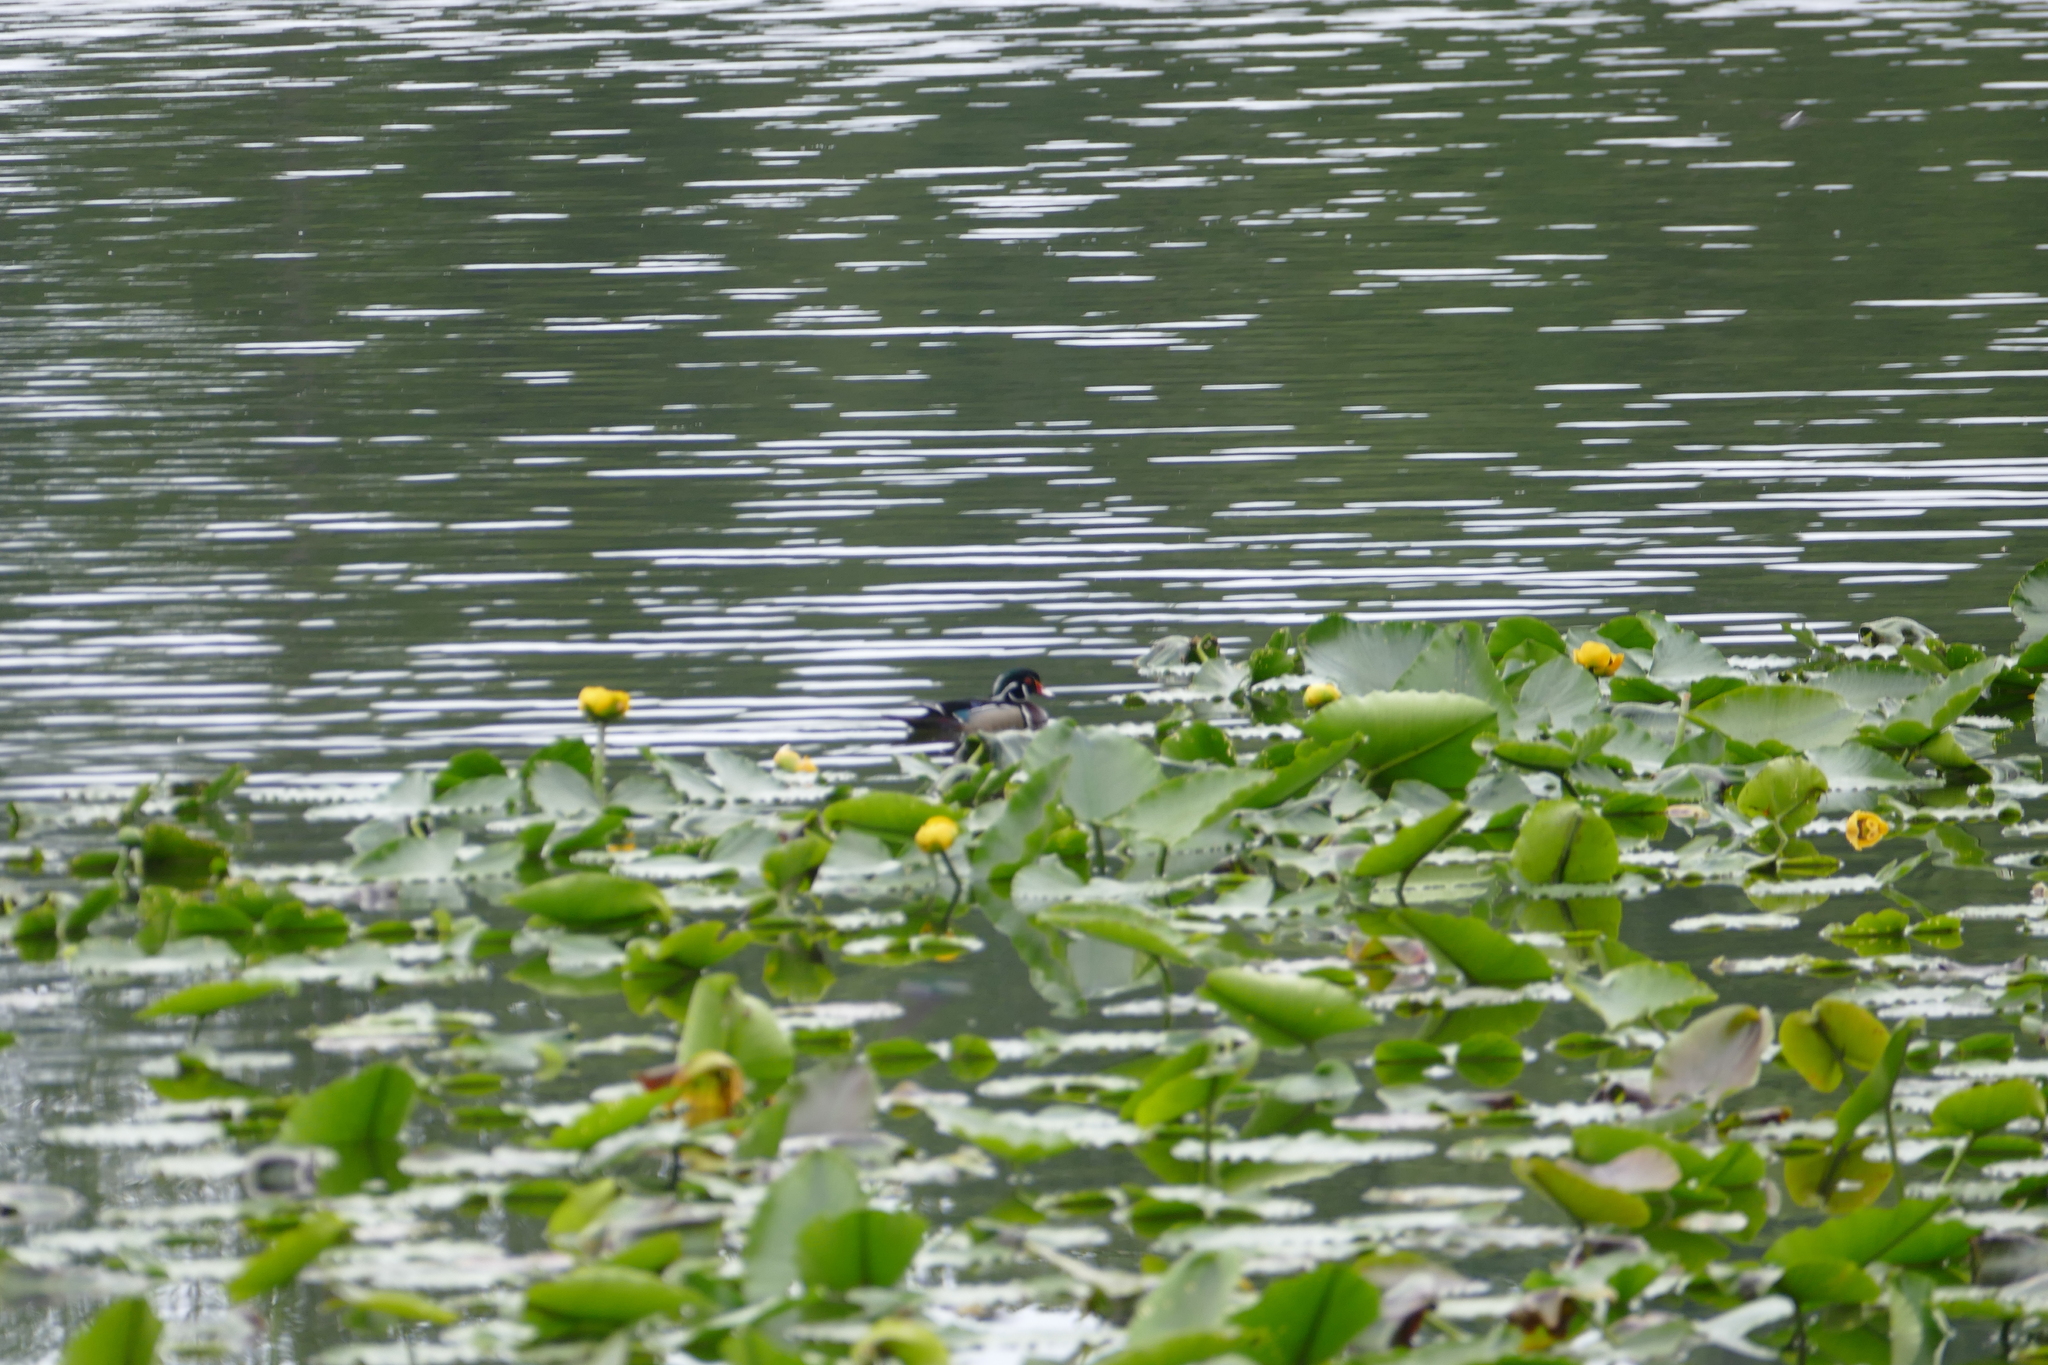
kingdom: Plantae
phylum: Tracheophyta
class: Magnoliopsida
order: Nymphaeales
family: Nymphaeaceae
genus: Nuphar
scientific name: Nuphar polysepala
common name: Rocky mountain cow-lily
